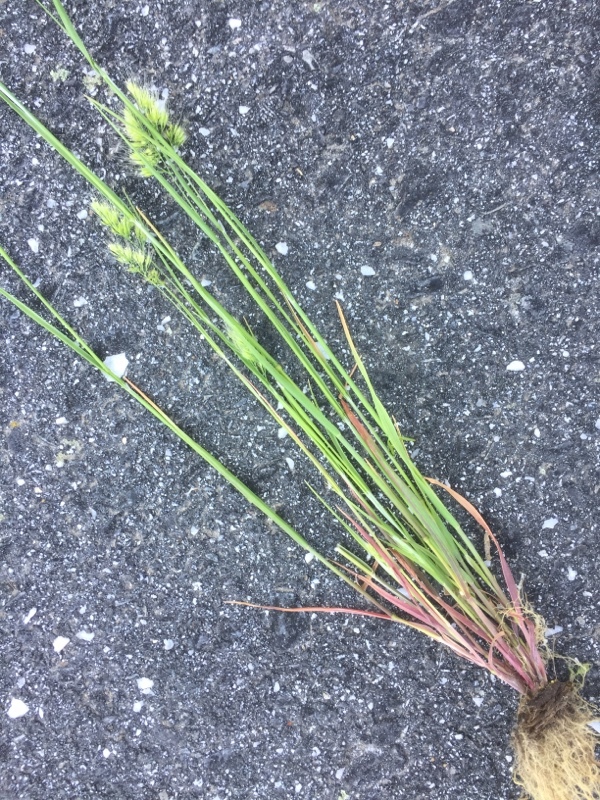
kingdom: Plantae
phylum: Tracheophyta
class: Liliopsida
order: Poales
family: Poaceae
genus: Cynosurus
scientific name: Cynosurus echinatus
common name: Rough dog's-tail
